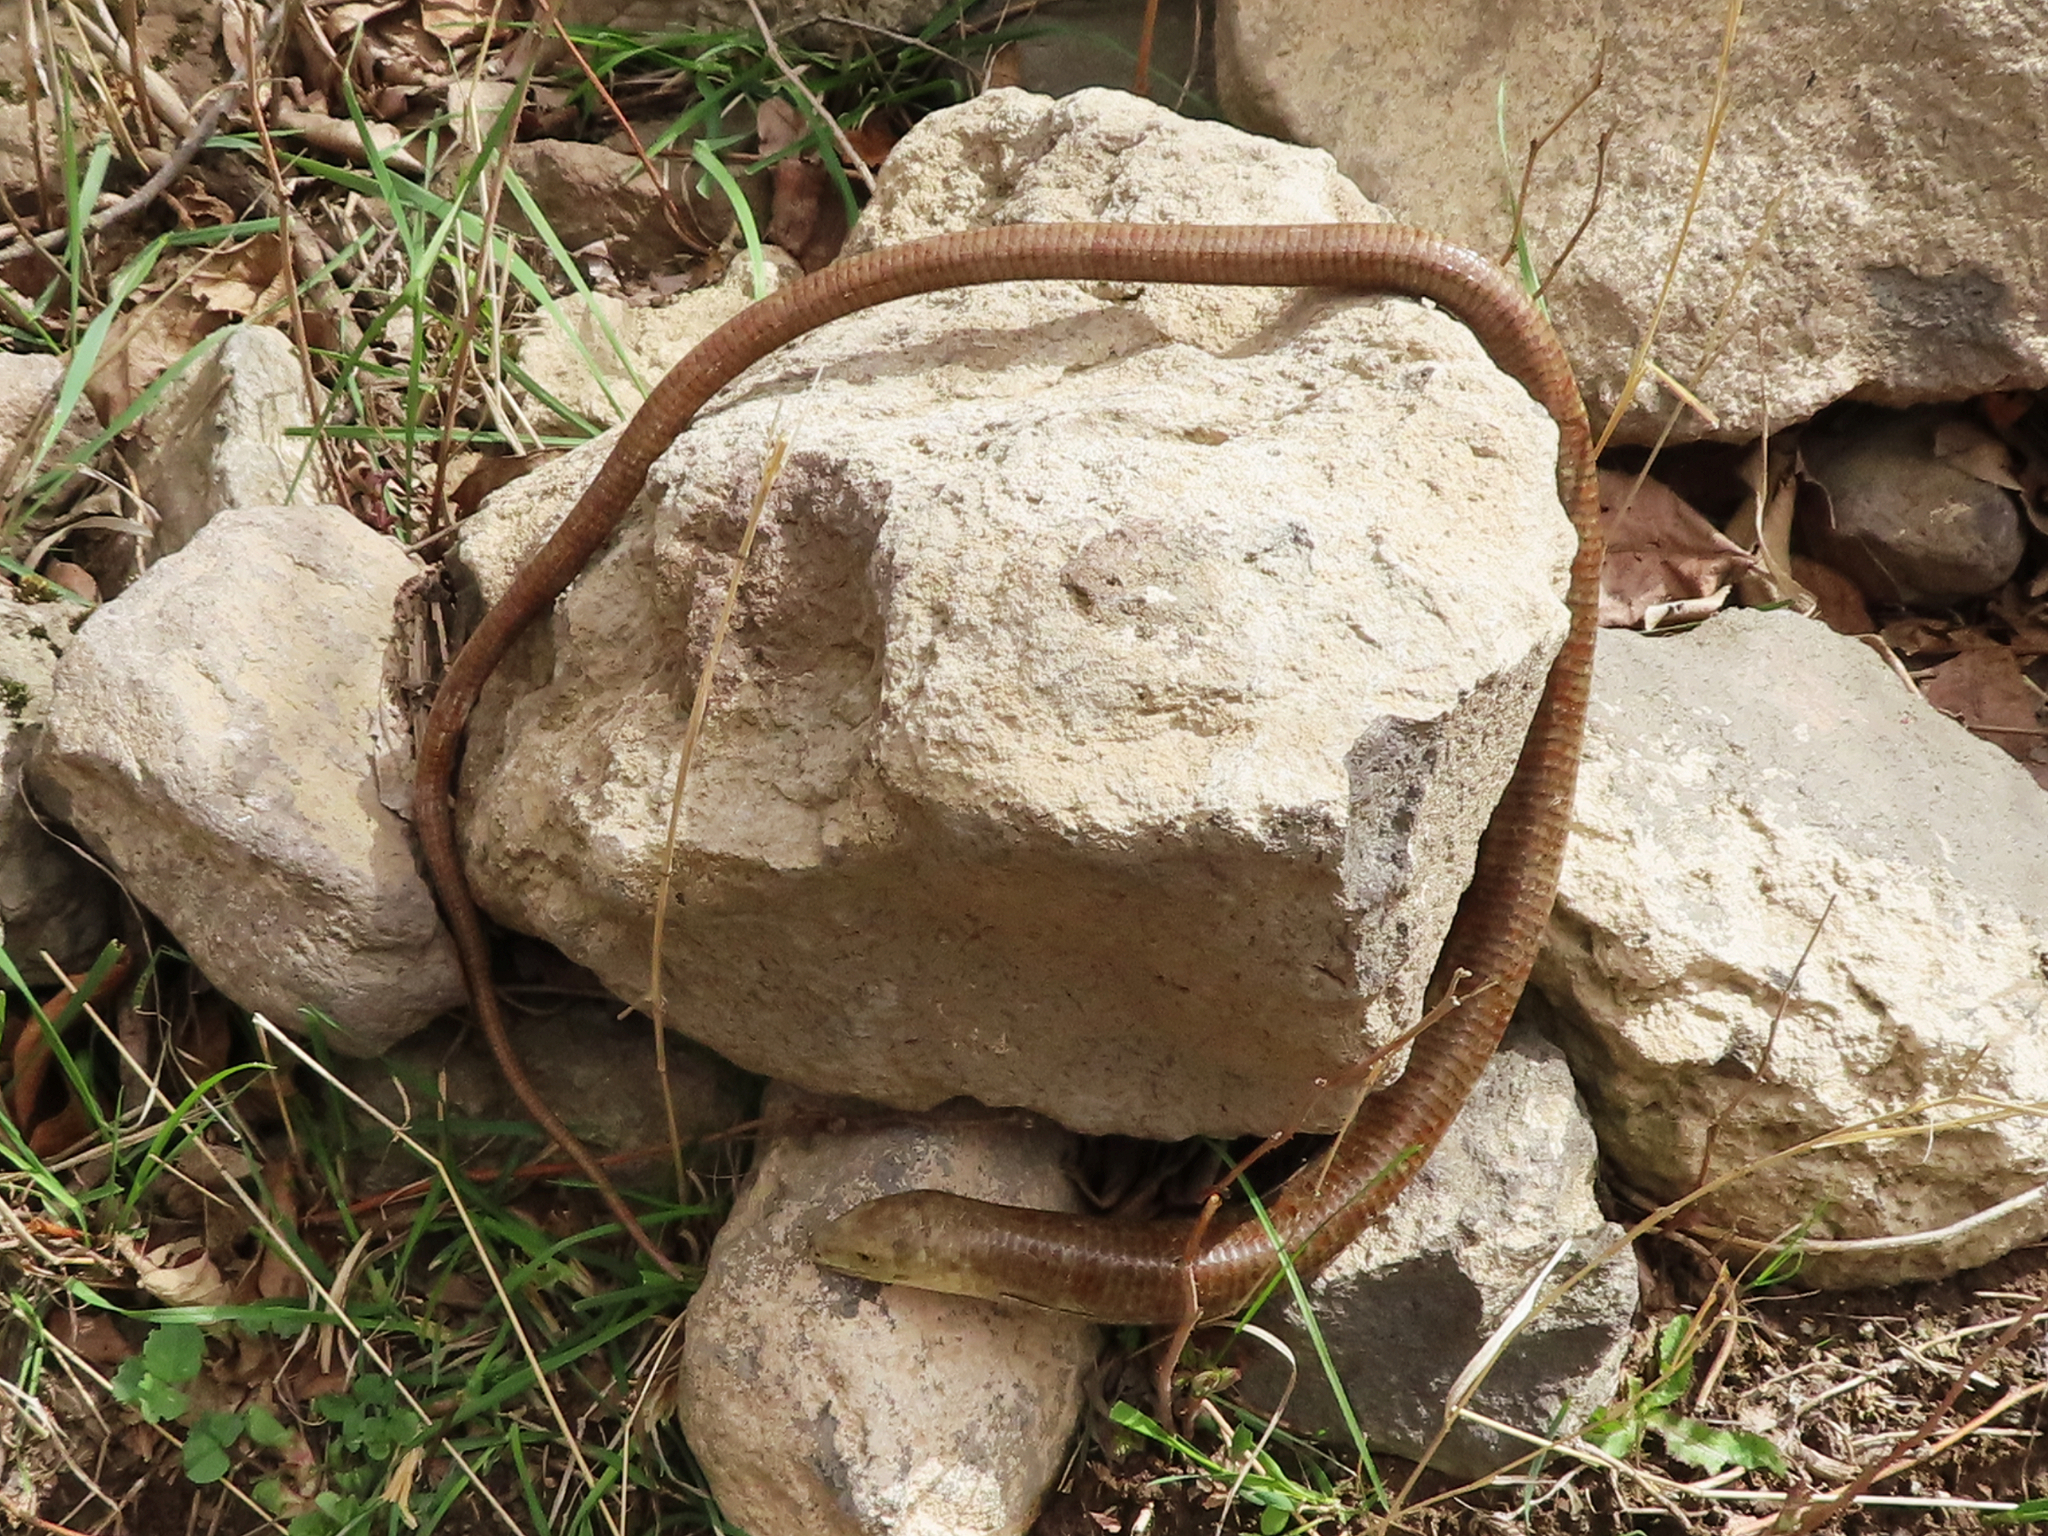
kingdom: Animalia
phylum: Chordata
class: Squamata
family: Anguidae
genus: Pseudopus
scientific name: Pseudopus apodus
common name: European glass lizard
